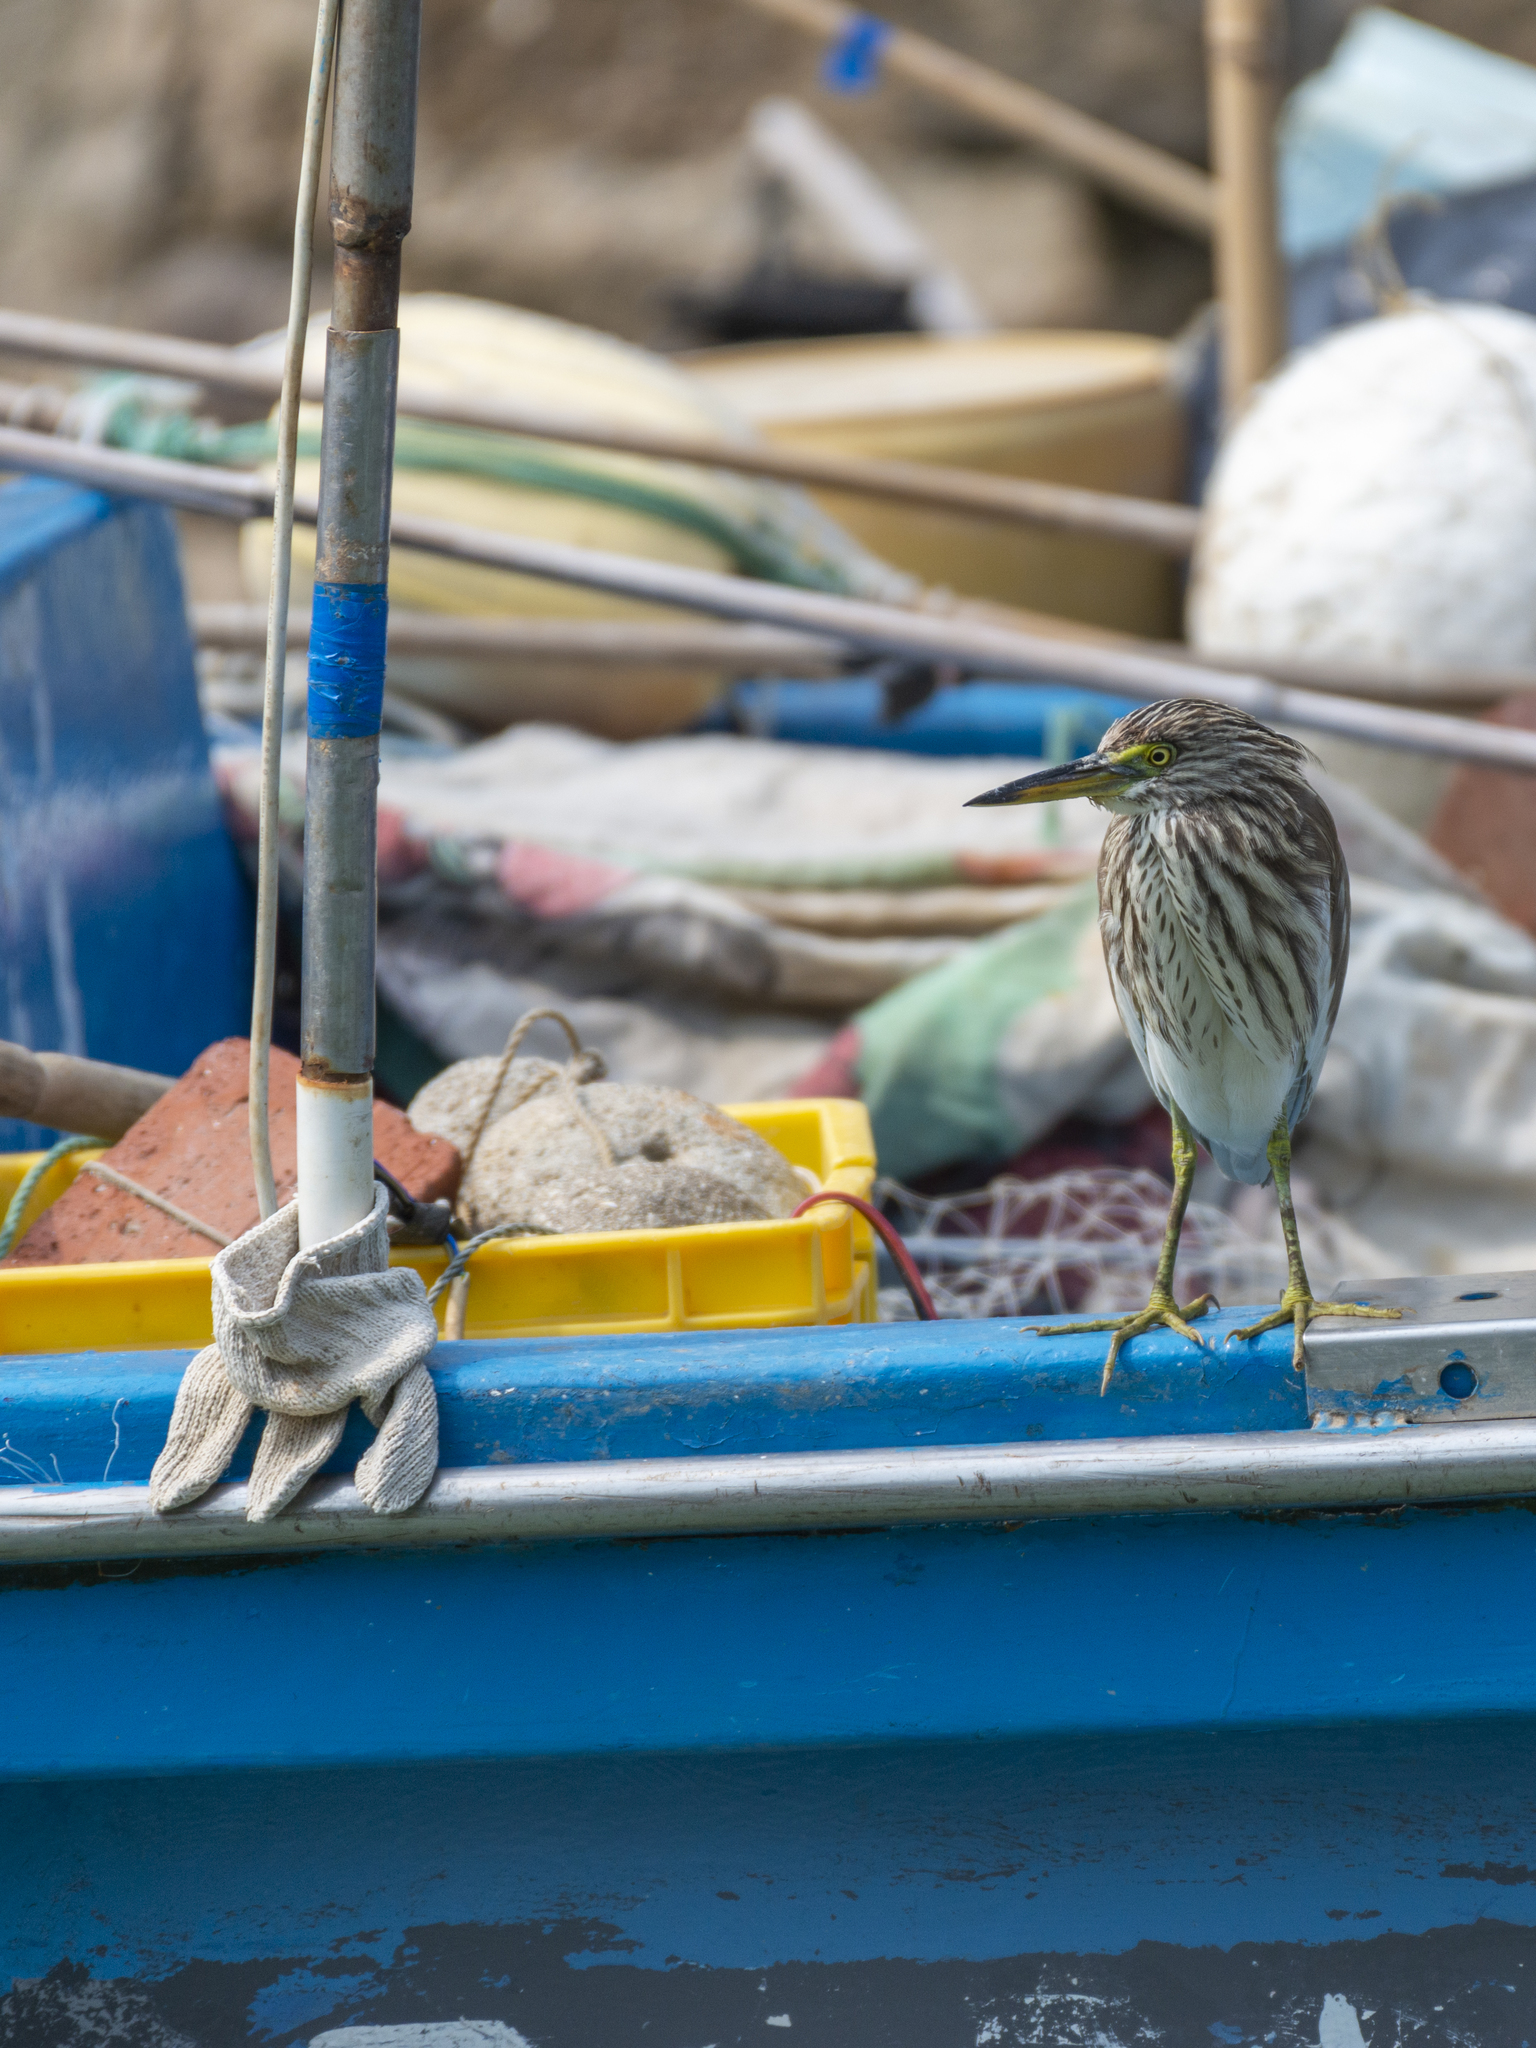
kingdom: Animalia
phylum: Chordata
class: Aves
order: Pelecaniformes
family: Ardeidae
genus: Ardeola
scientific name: Ardeola bacchus
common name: Chinese pond heron
